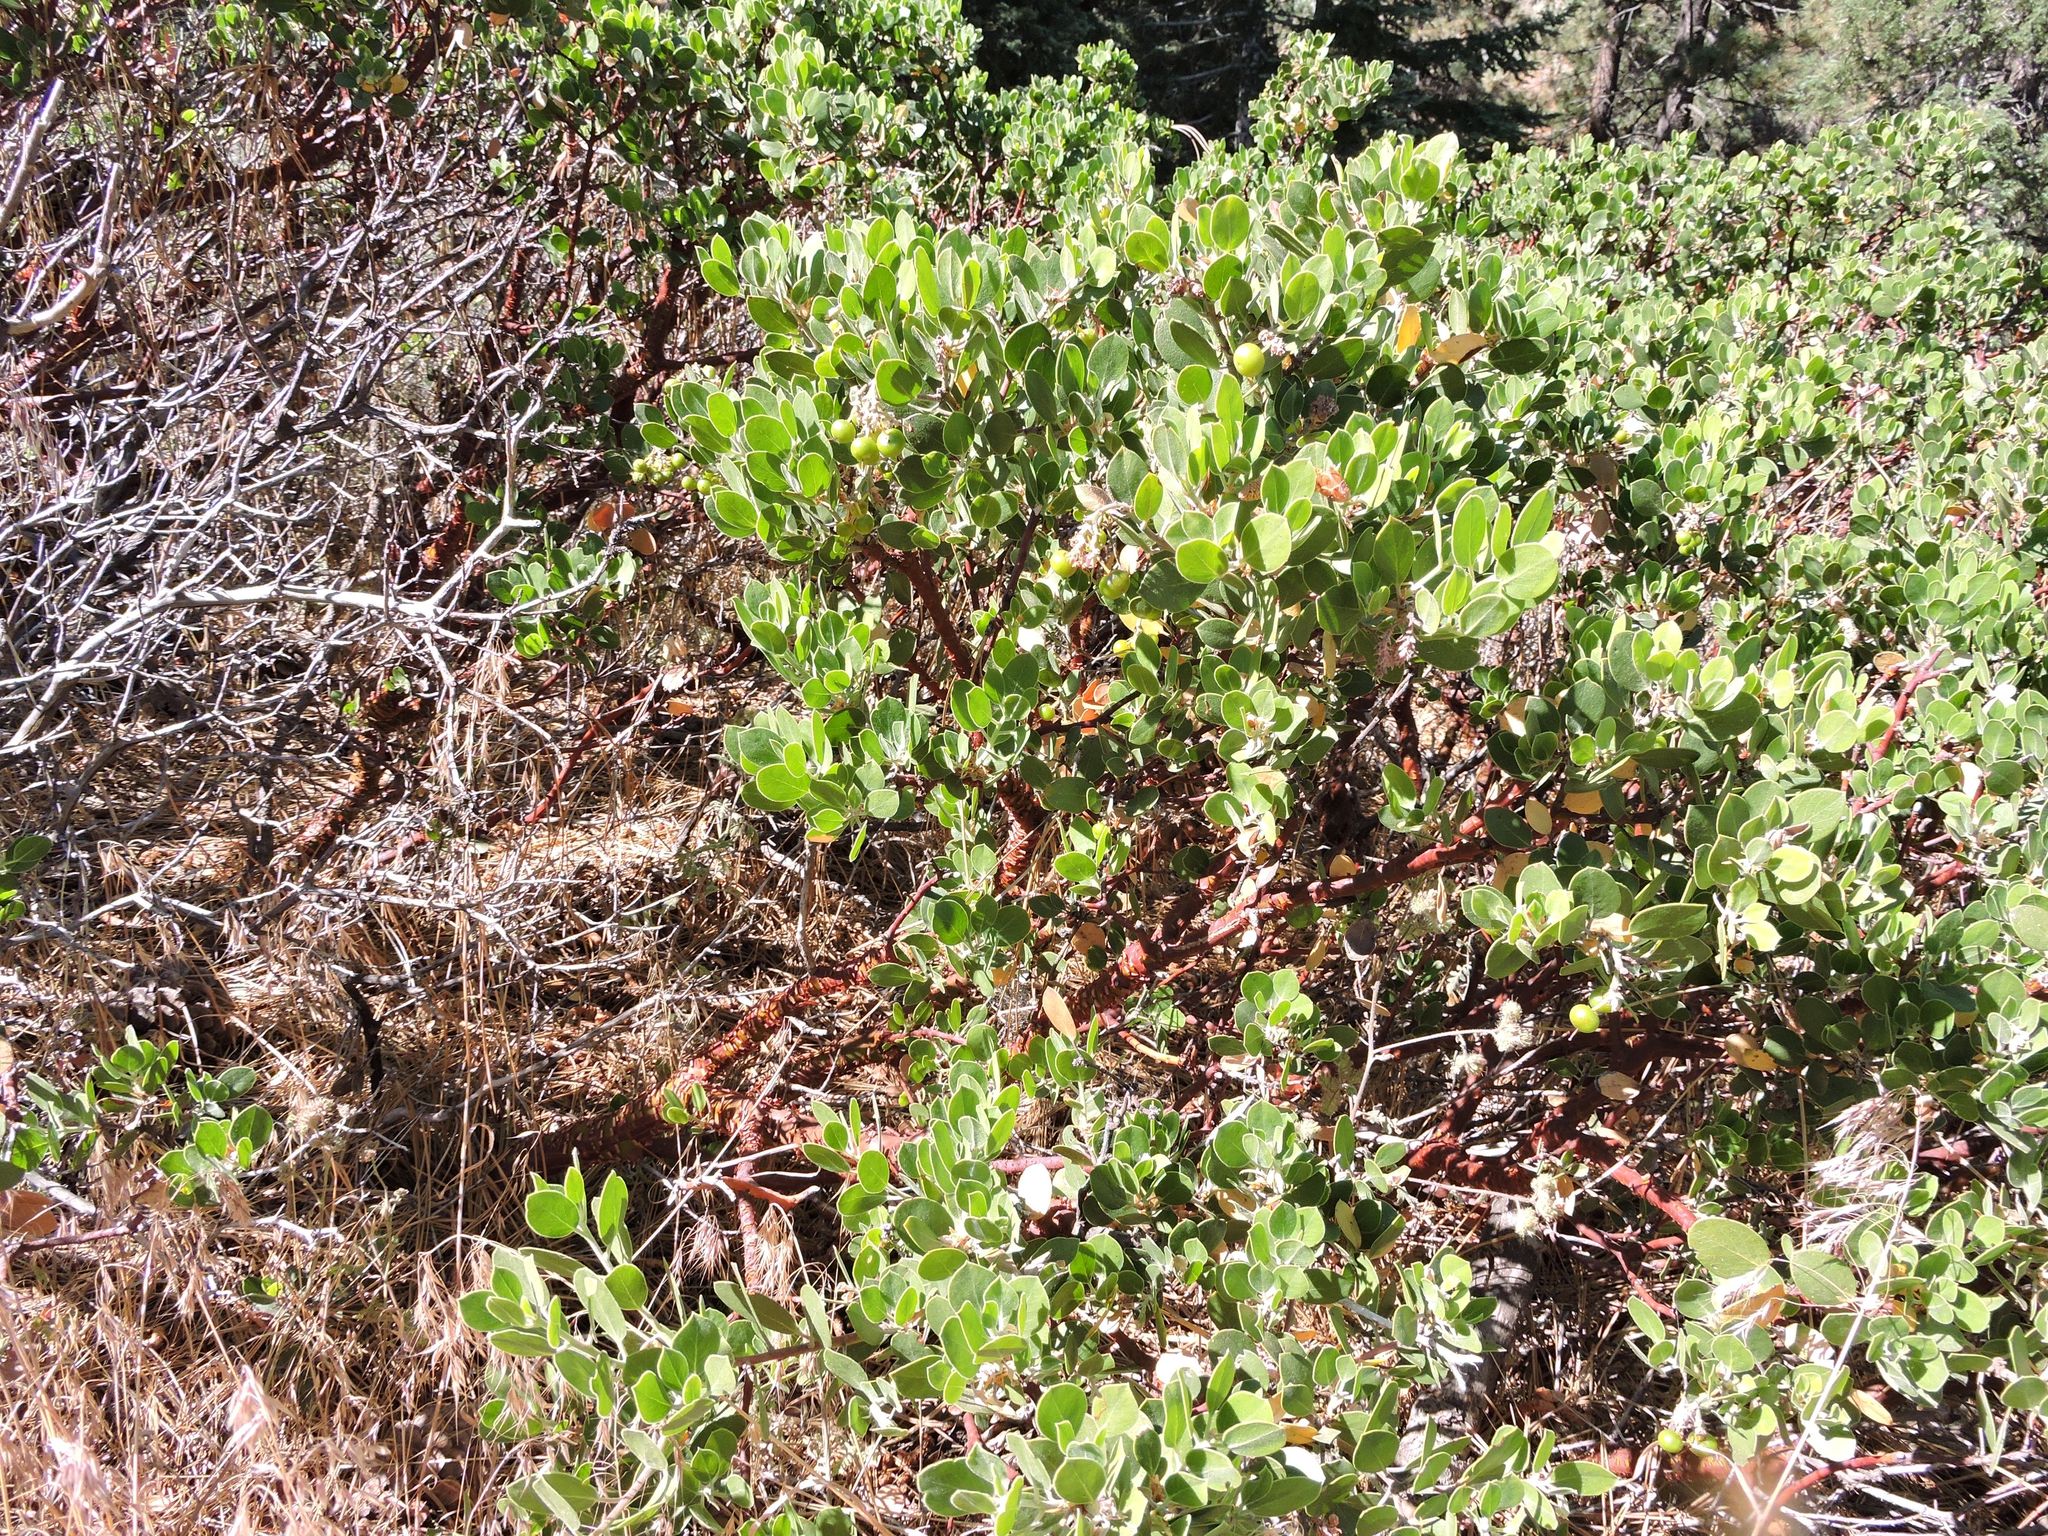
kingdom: Plantae
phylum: Tracheophyta
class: Magnoliopsida
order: Ericales
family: Ericaceae
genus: Arctostaphylos
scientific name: Arctostaphylos patula
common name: Green-leaf manzanita
